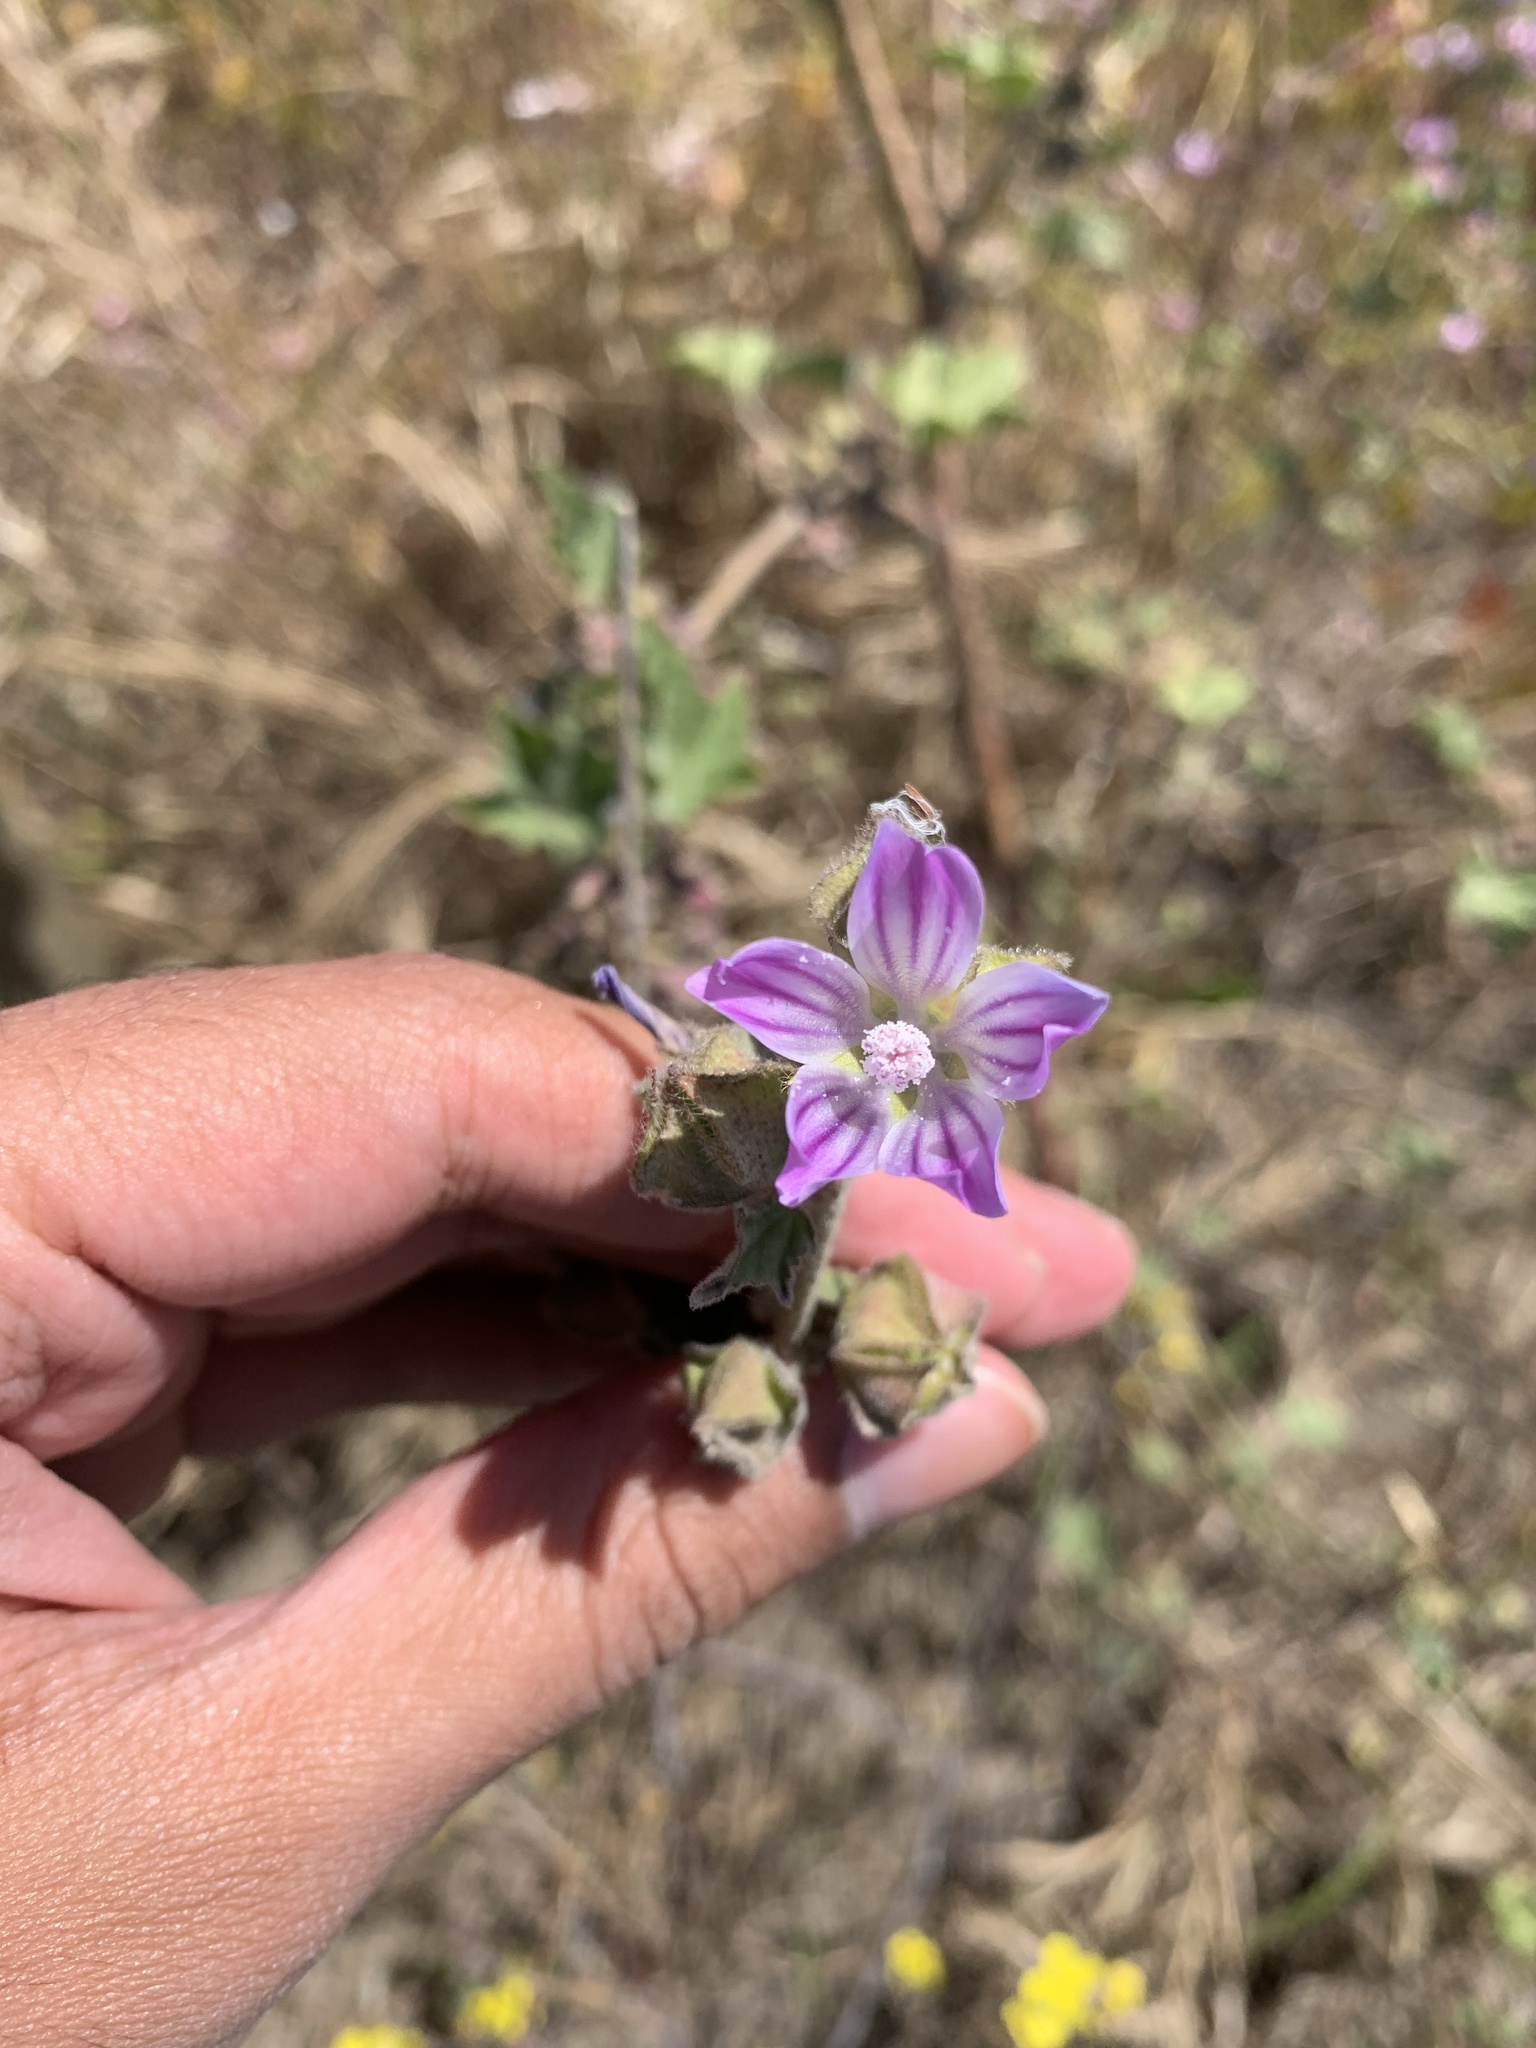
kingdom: Plantae
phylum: Tracheophyta
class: Magnoliopsida
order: Malvales
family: Malvaceae
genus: Malva
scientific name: Malva multiflora
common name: Cheeseweed
